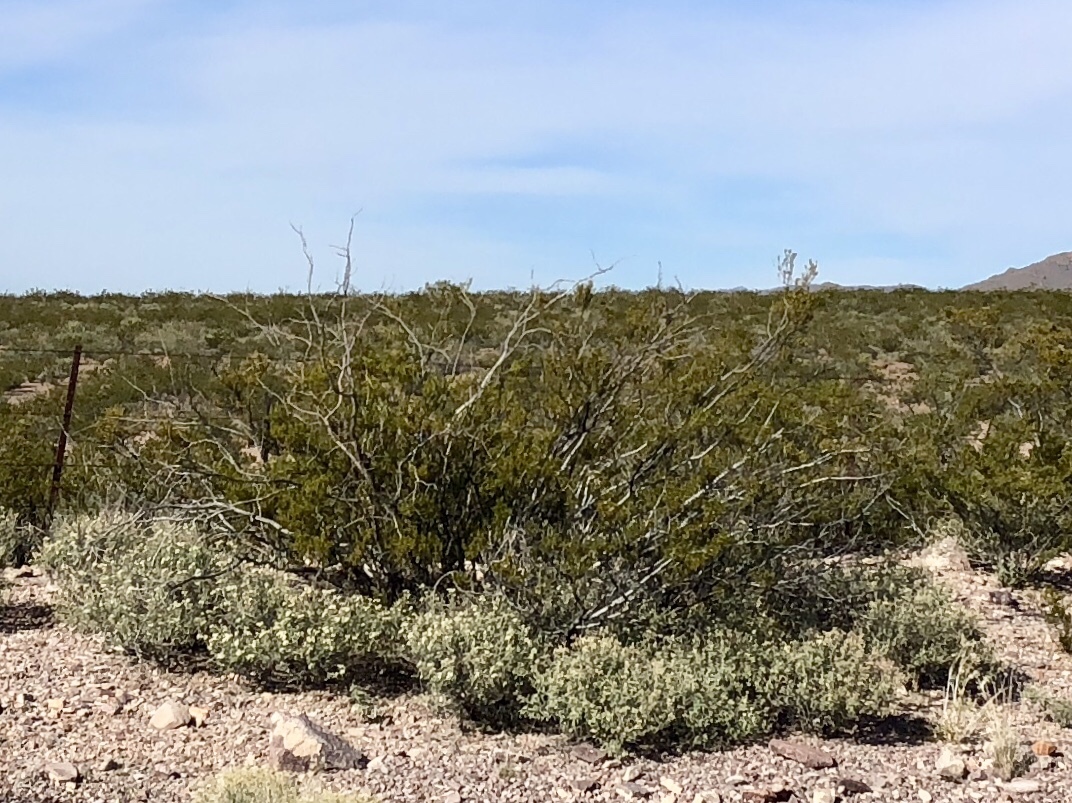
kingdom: Plantae
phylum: Tracheophyta
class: Magnoliopsida
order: Zygophyllales
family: Zygophyllaceae
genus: Larrea
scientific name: Larrea tridentata
